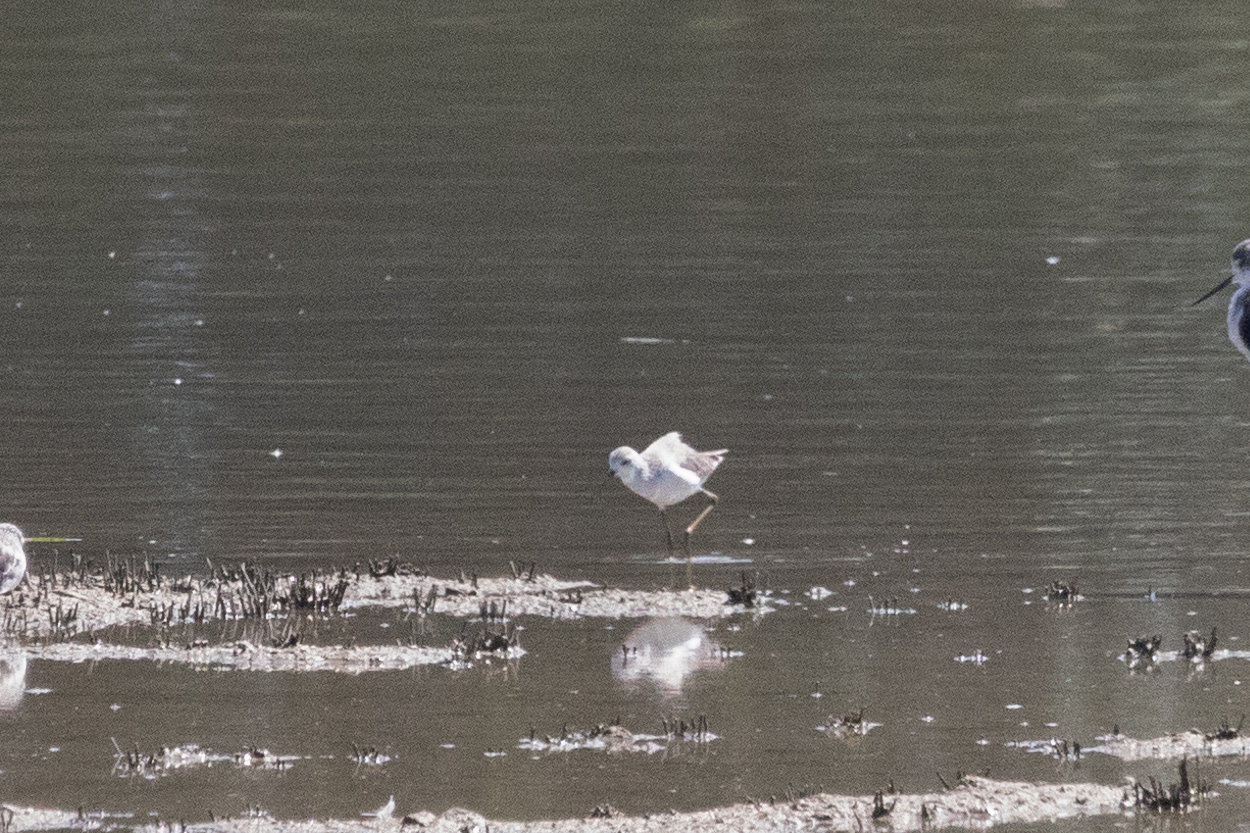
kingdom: Animalia
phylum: Chordata
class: Aves
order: Charadriiformes
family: Scolopacidae
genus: Tringa
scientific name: Tringa stagnatilis
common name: Marsh sandpiper
